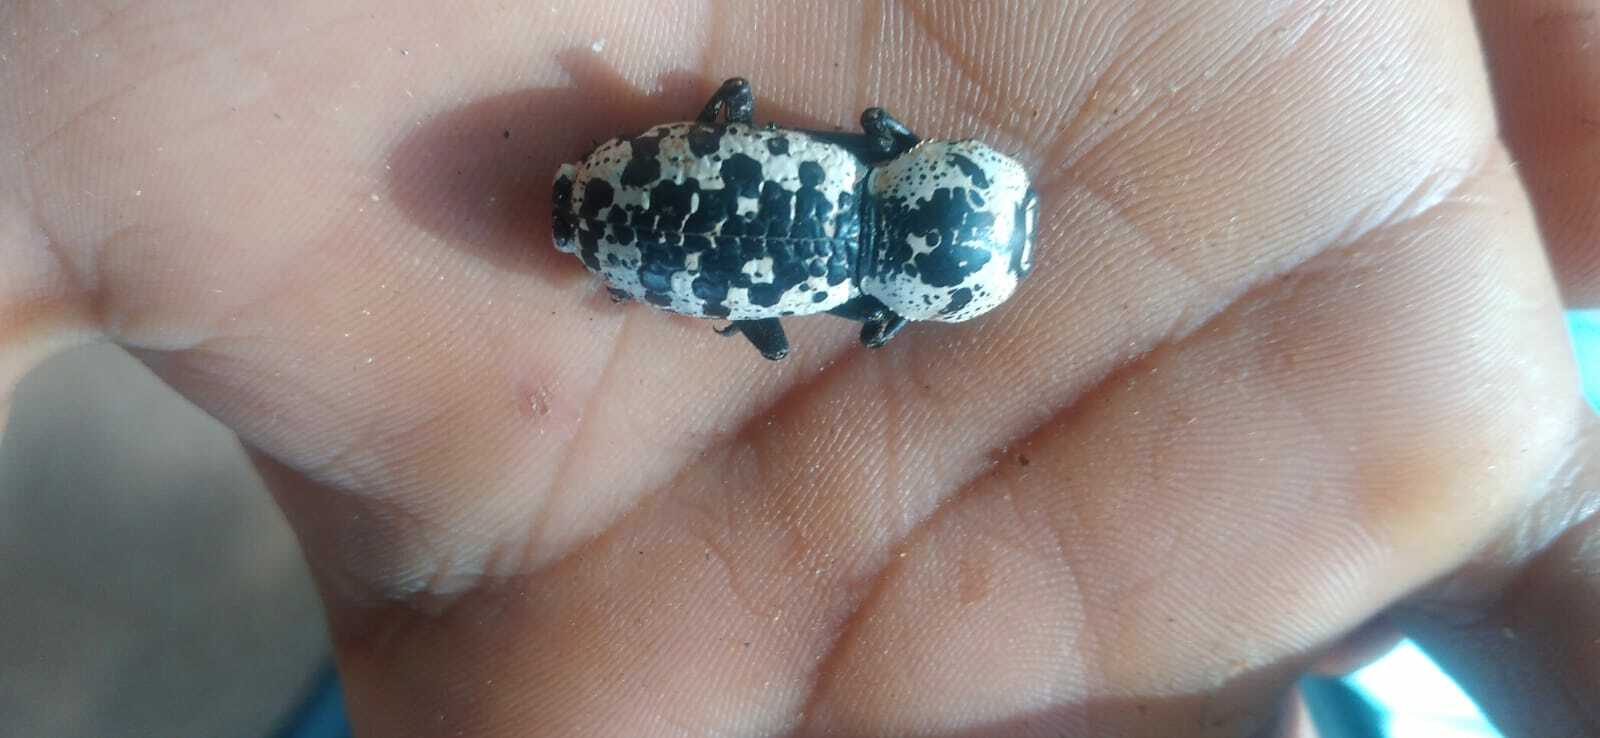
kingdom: Animalia
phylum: Arthropoda
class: Insecta
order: Coleoptera
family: Zopheridae
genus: Zopherus
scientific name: Zopherus nodulosus
